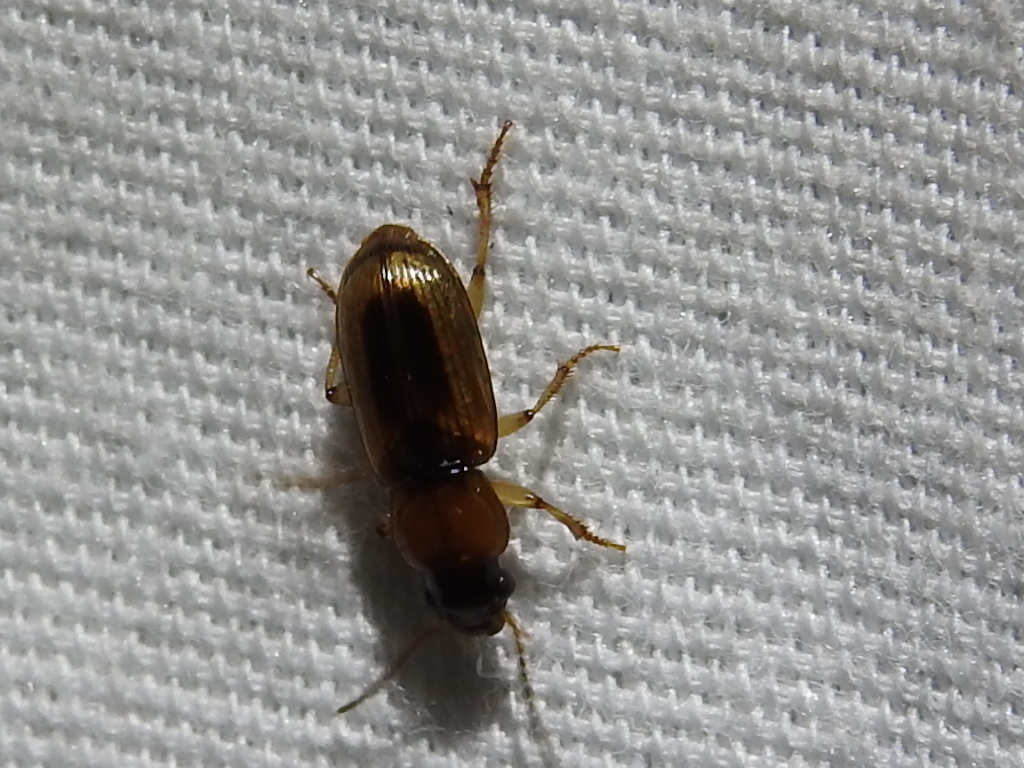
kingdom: Animalia
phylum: Arthropoda
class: Insecta
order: Coleoptera
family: Carabidae
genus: Stenolophus
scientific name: Stenolophus lecontei
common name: Leconte's seedcorn beetle
